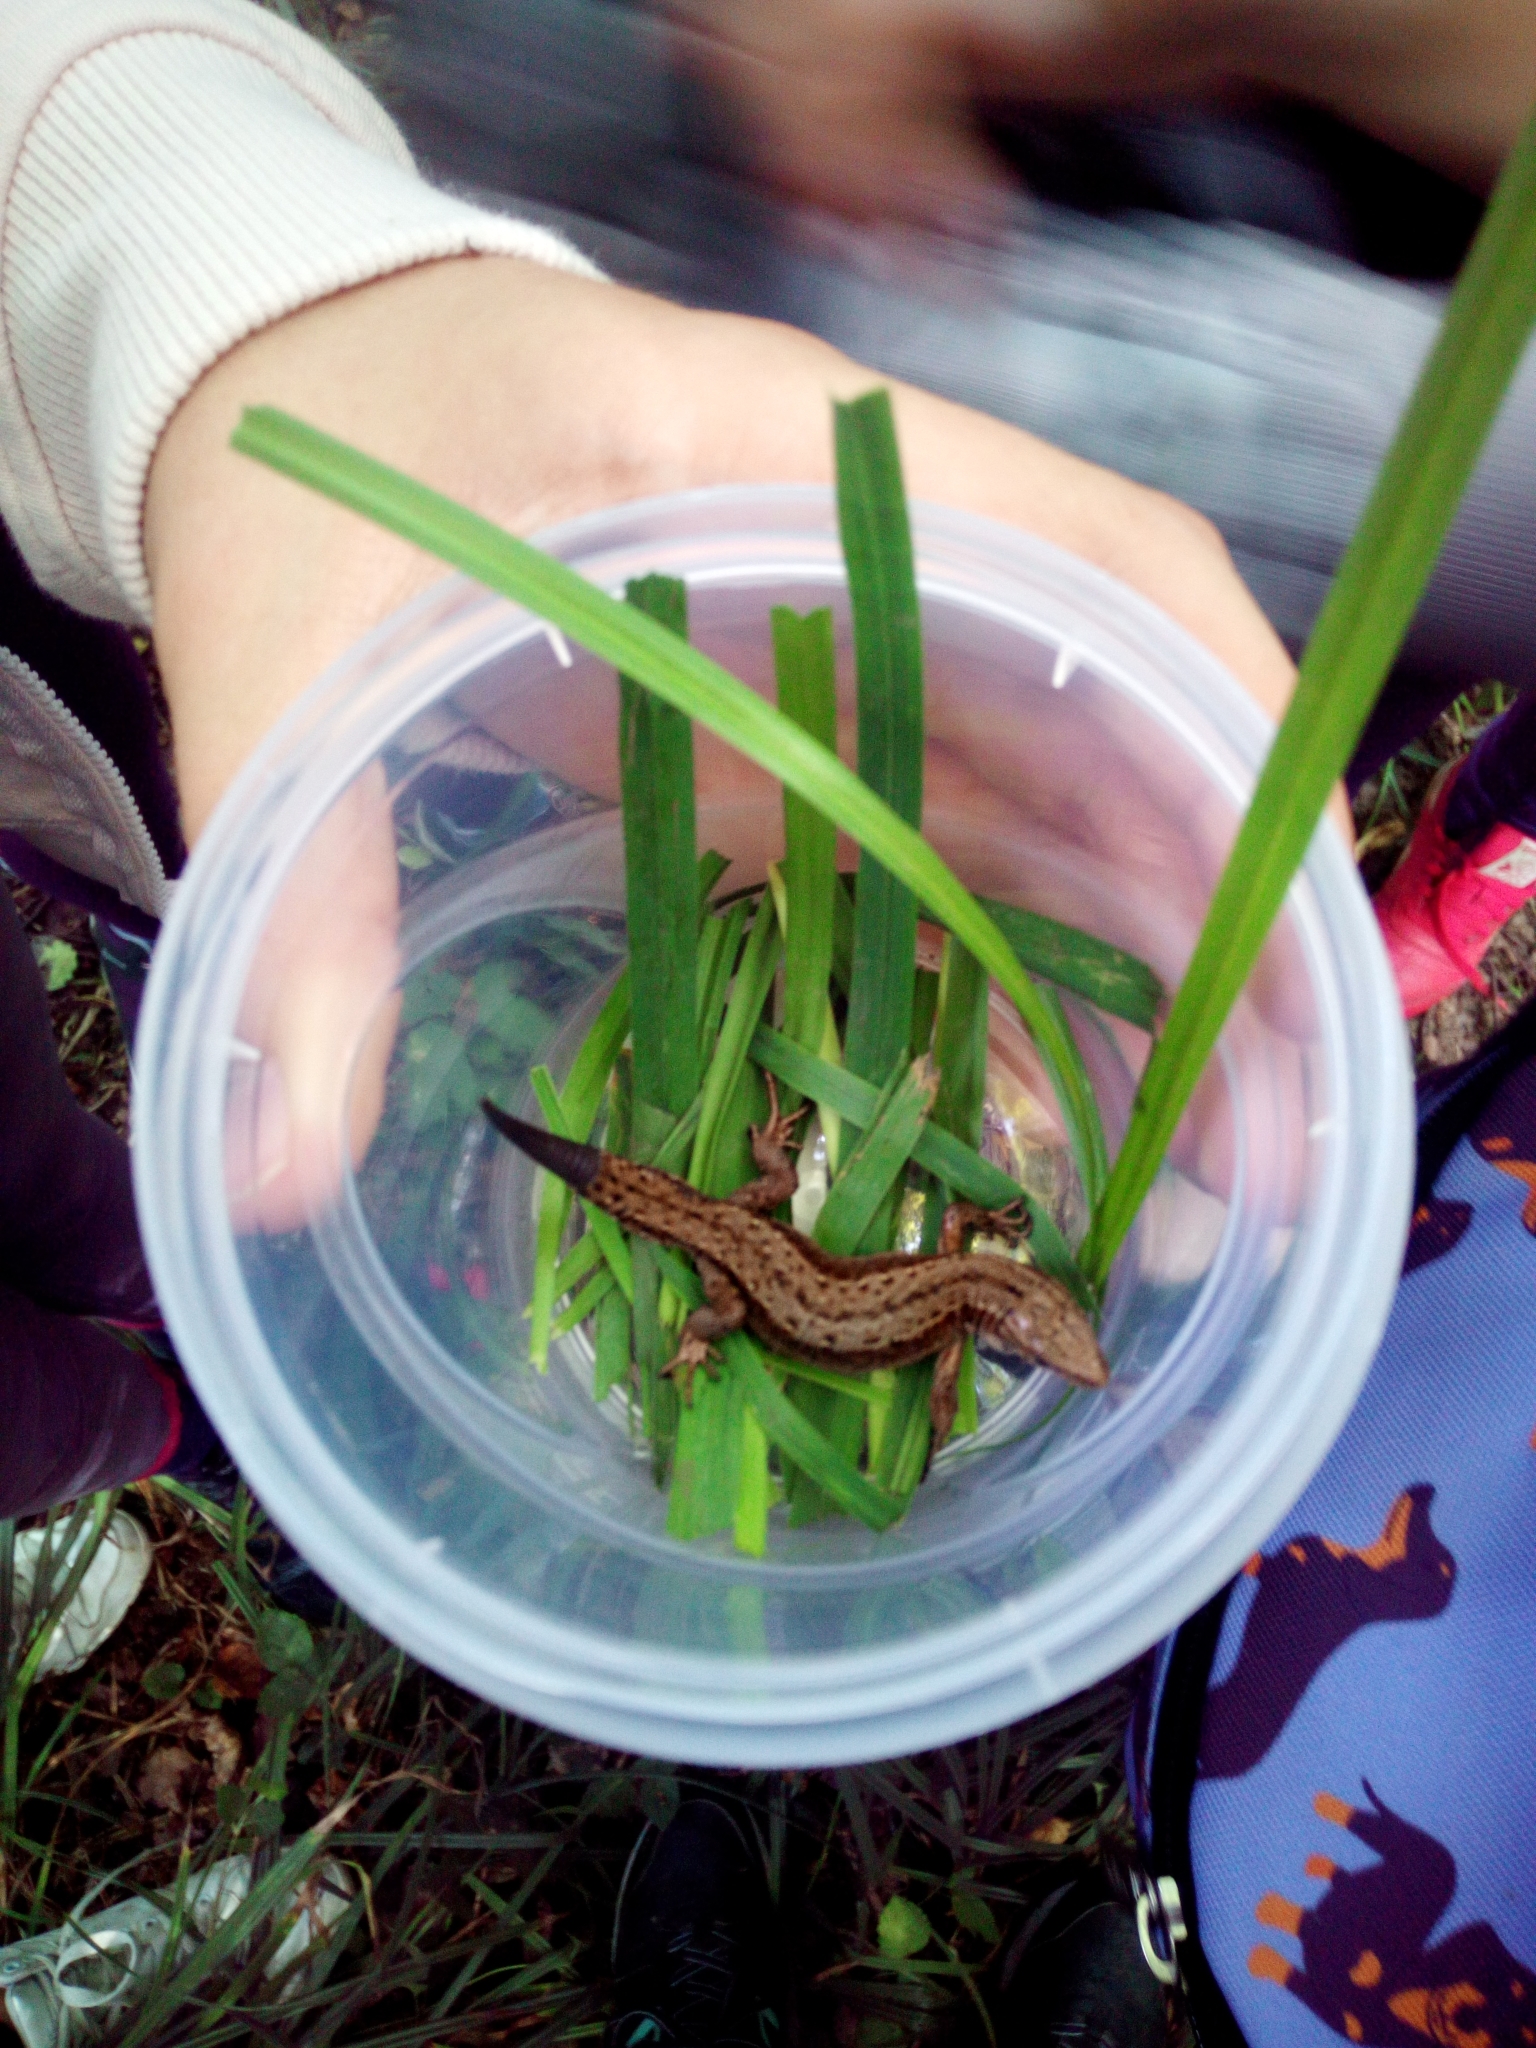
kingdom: Animalia
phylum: Chordata
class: Squamata
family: Lacertidae
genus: Zootoca
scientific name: Zootoca vivipara
